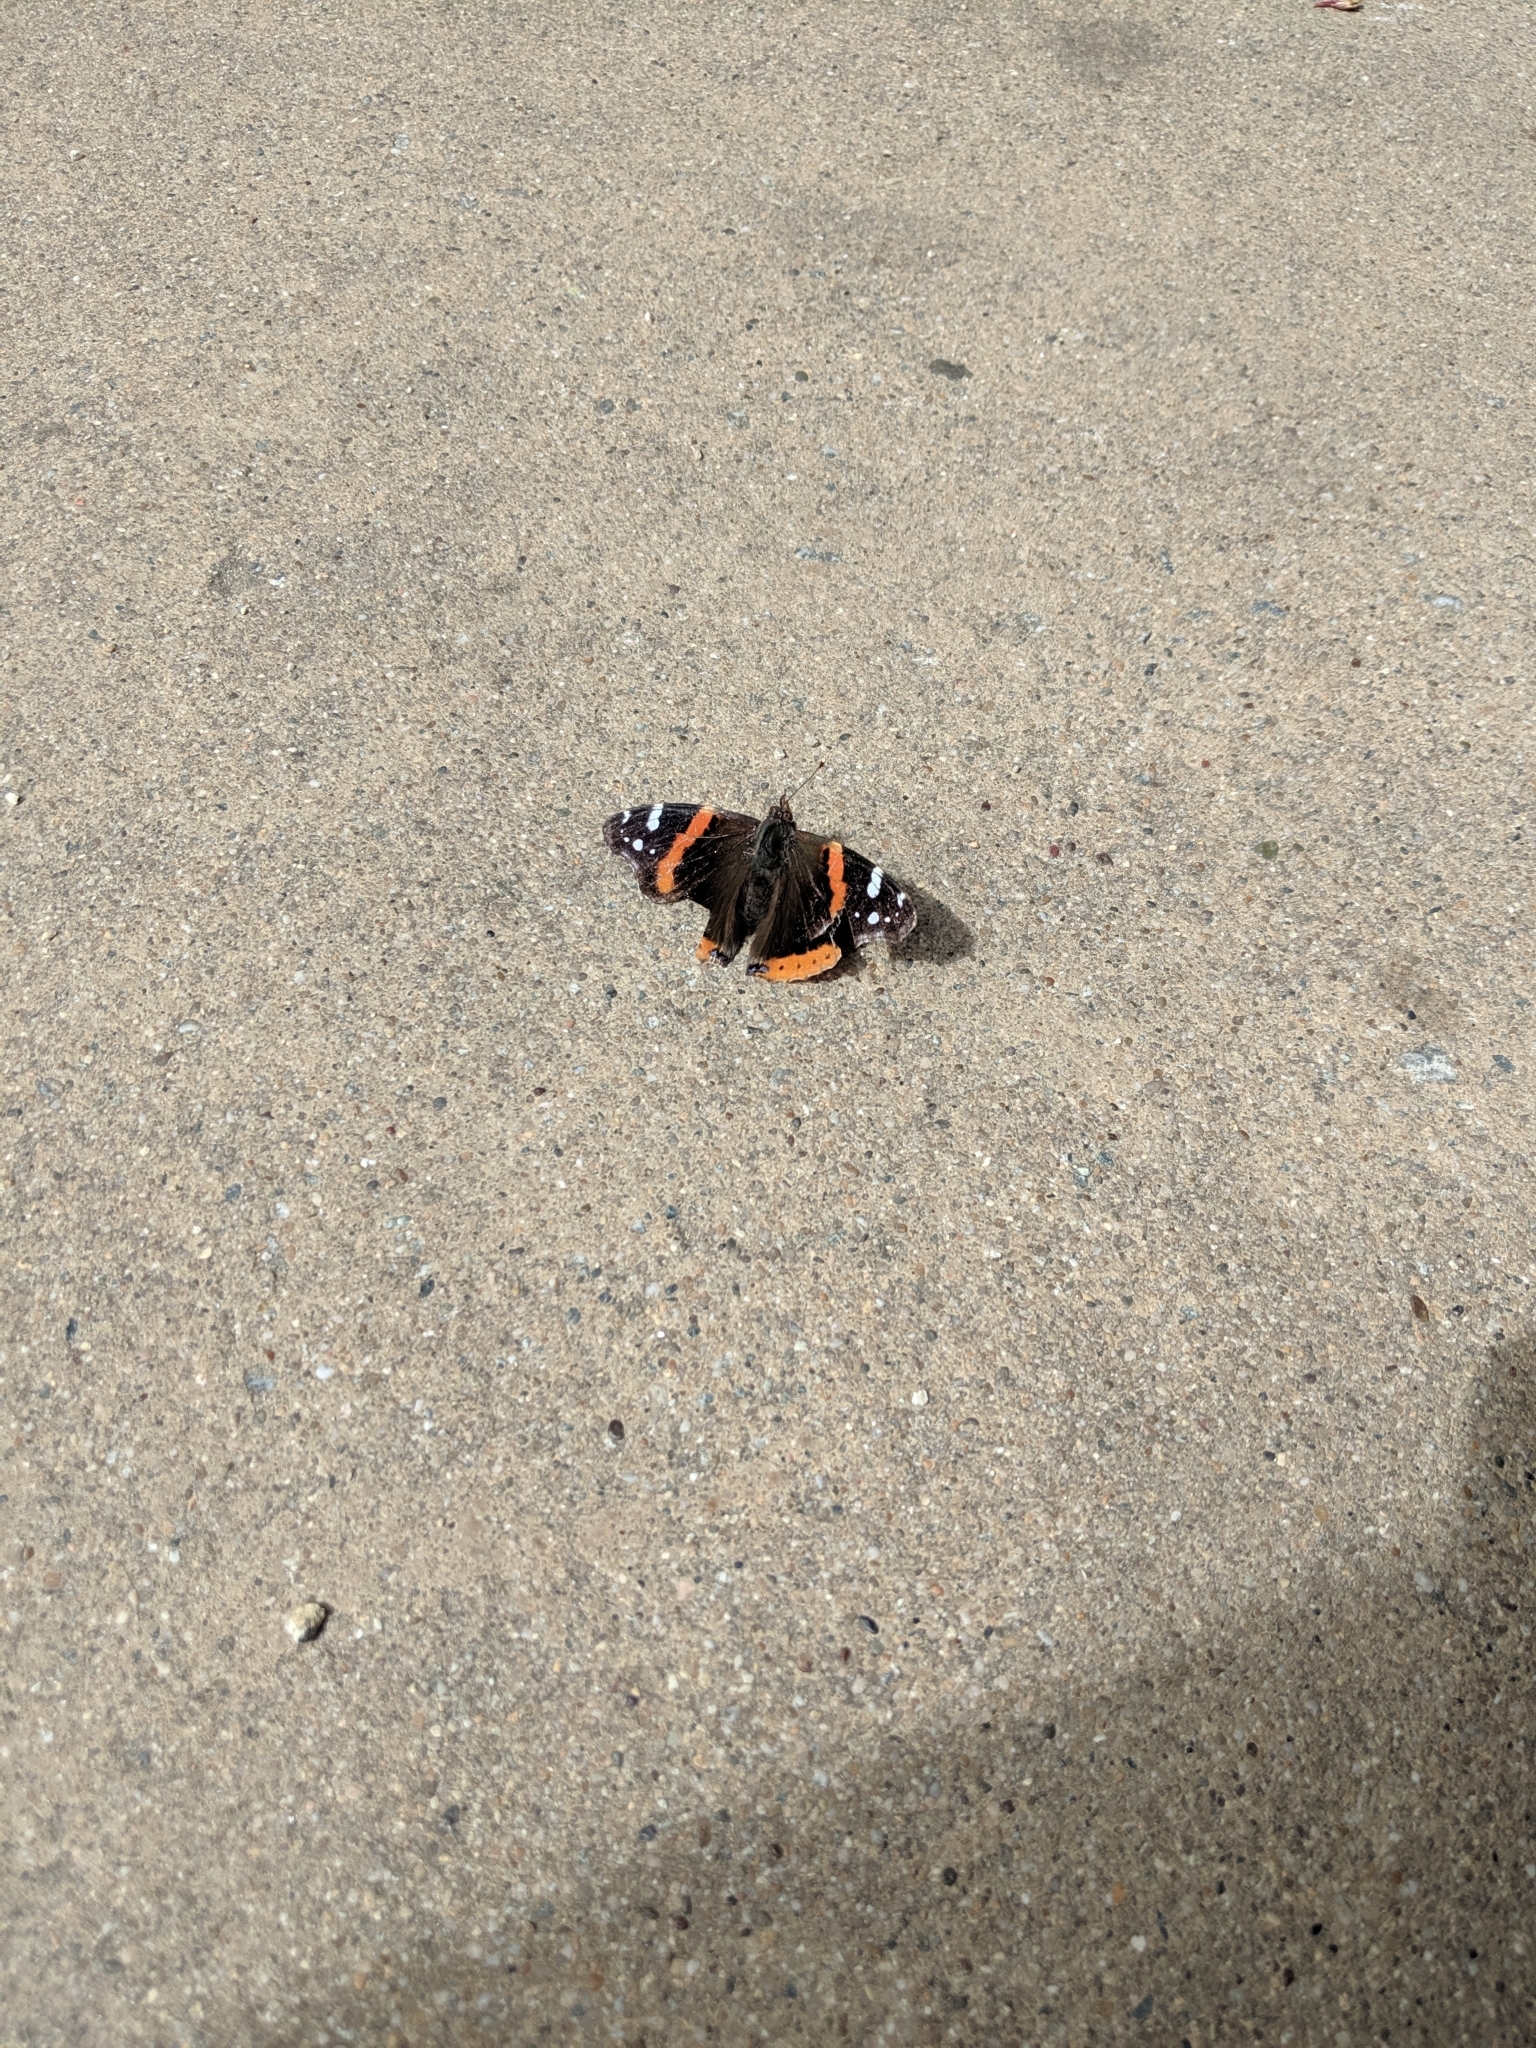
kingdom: Animalia
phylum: Arthropoda
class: Insecta
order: Lepidoptera
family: Nymphalidae
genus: Vanessa
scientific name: Vanessa atalanta
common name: Red admiral
